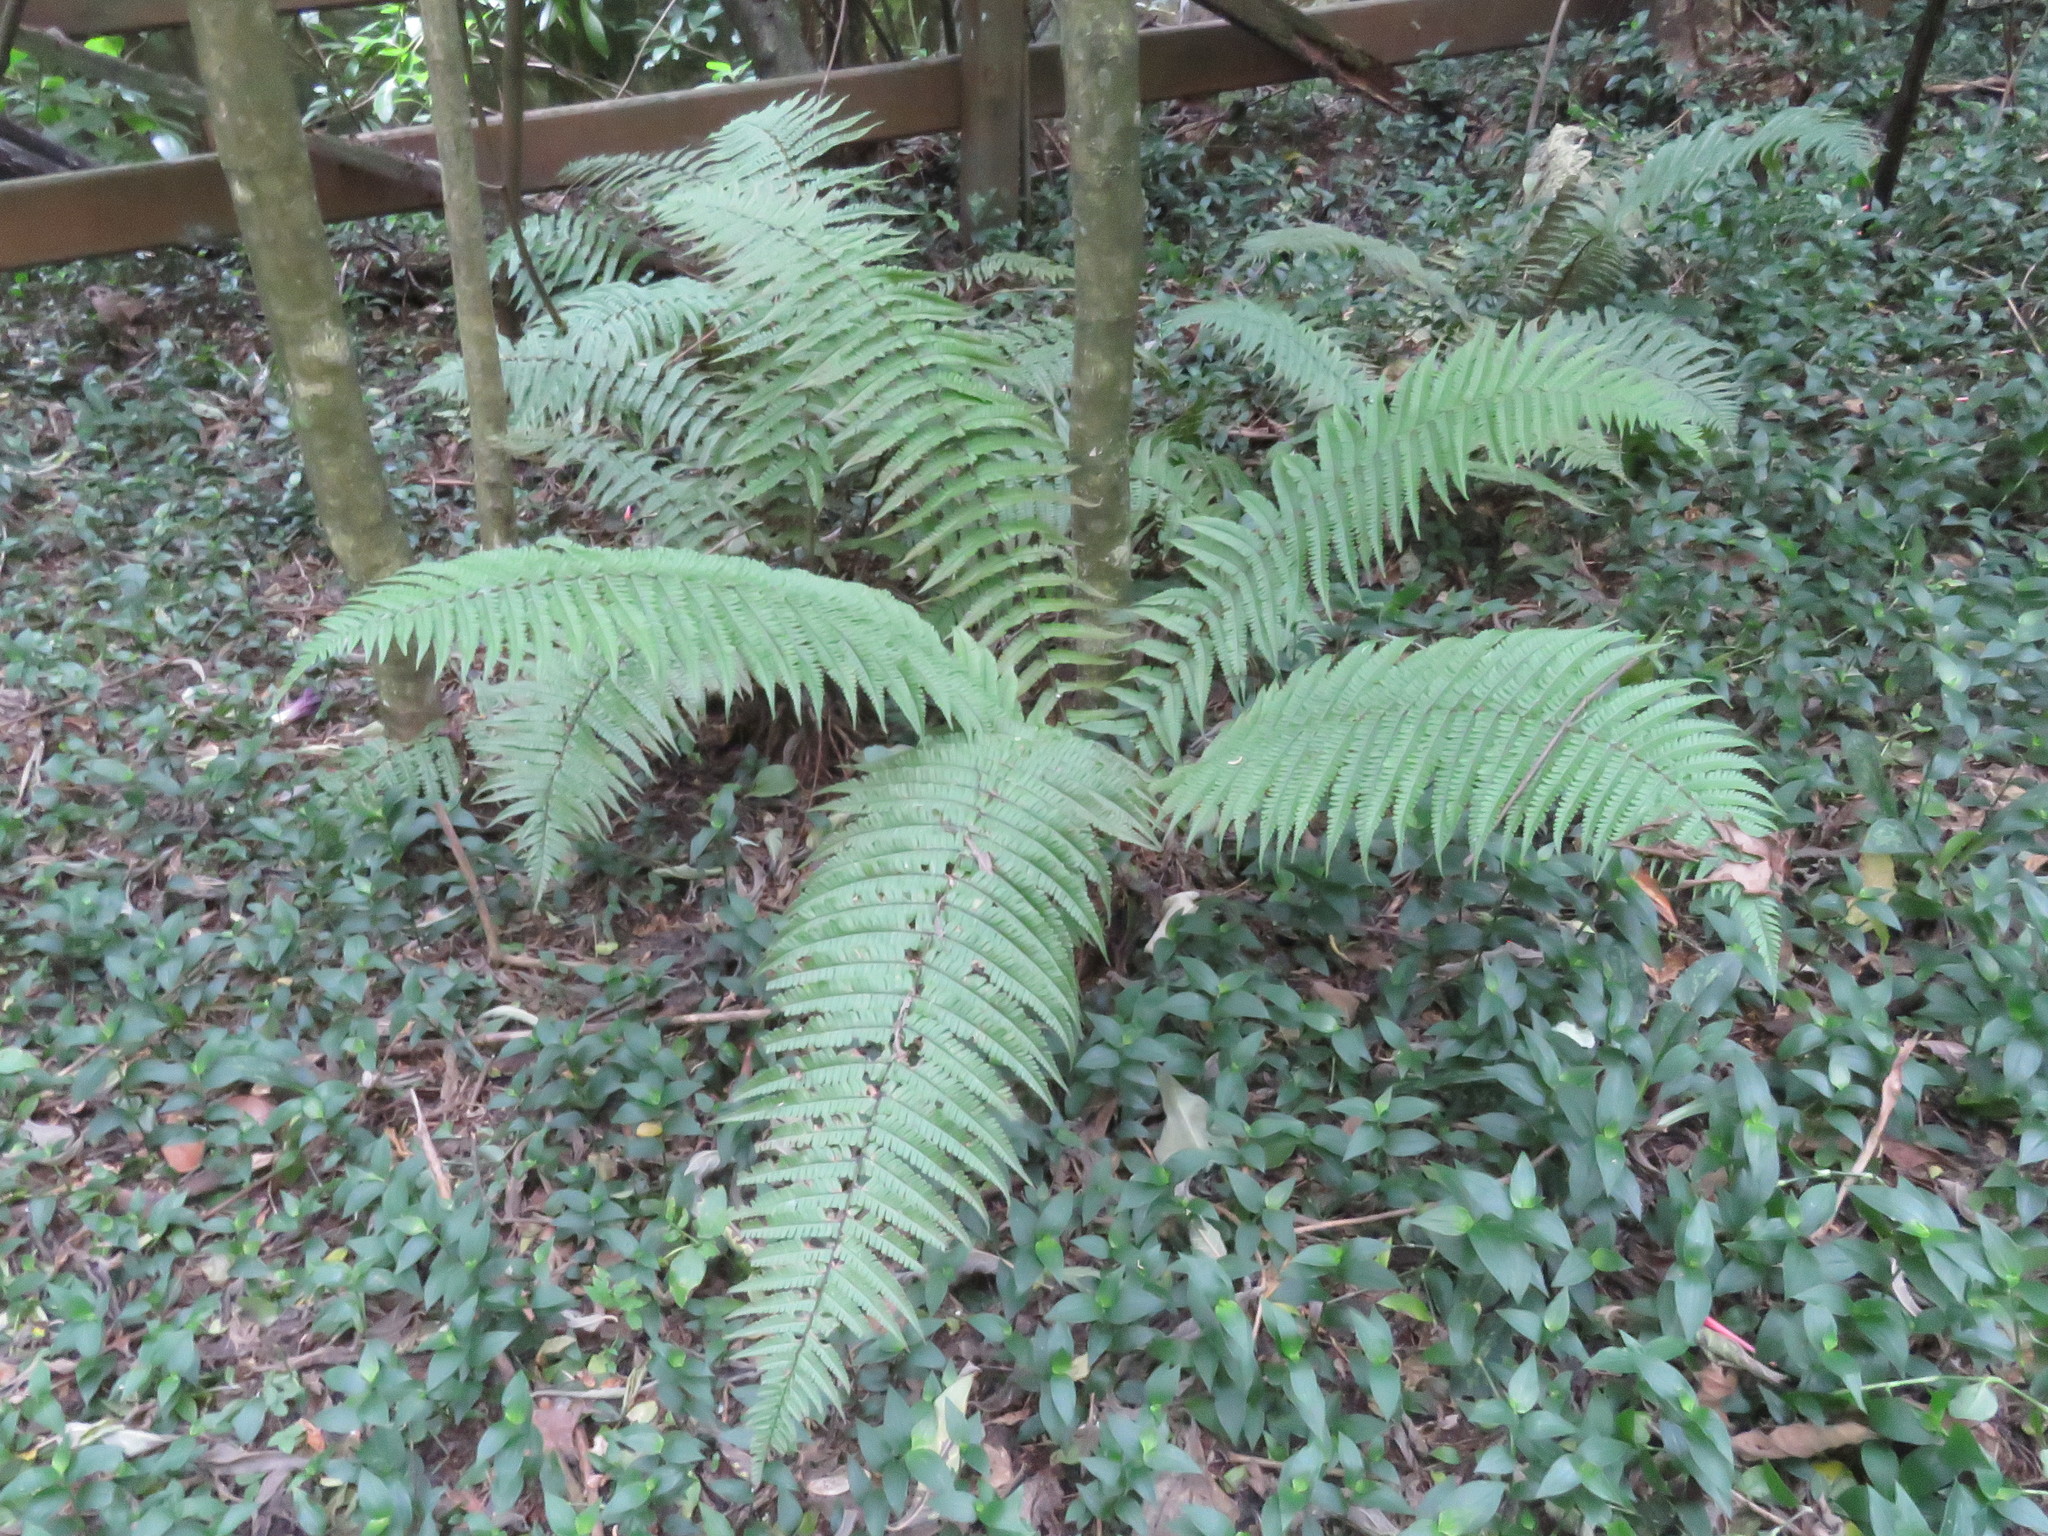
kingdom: Plantae
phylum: Tracheophyta
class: Polypodiopsida
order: Polypodiales
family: Dryopteridaceae
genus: Dryopteris
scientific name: Dryopteris wallichiana
